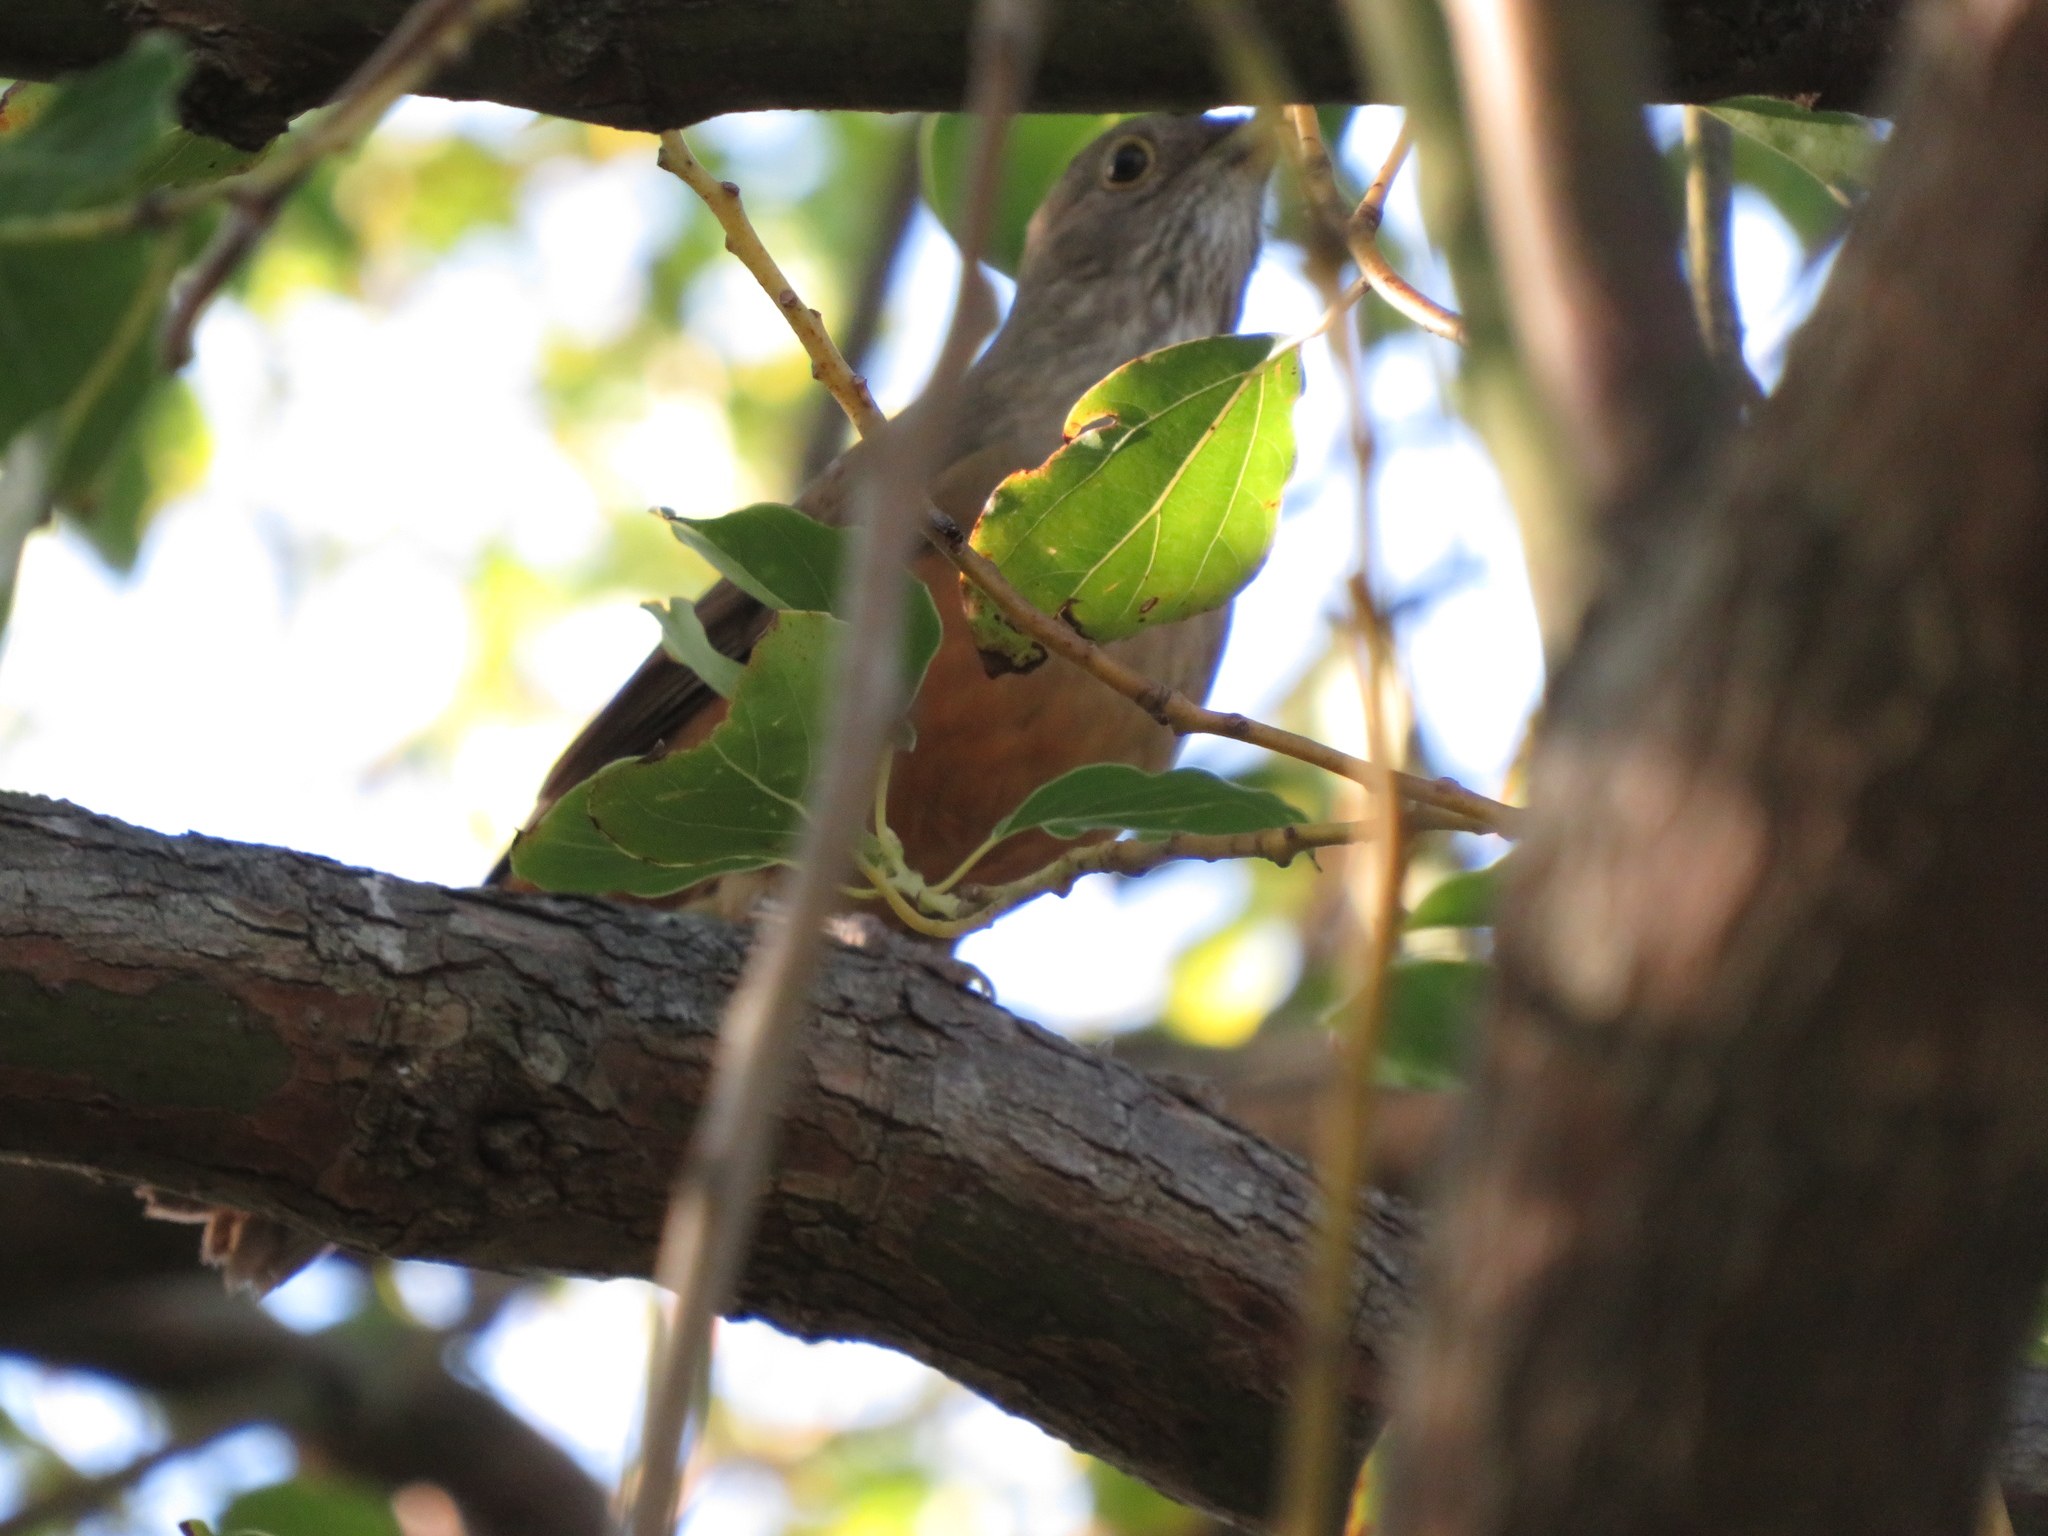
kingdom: Animalia
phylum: Chordata
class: Aves
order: Passeriformes
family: Turdidae
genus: Turdus
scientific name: Turdus rufiventris
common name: Rufous-bellied thrush
